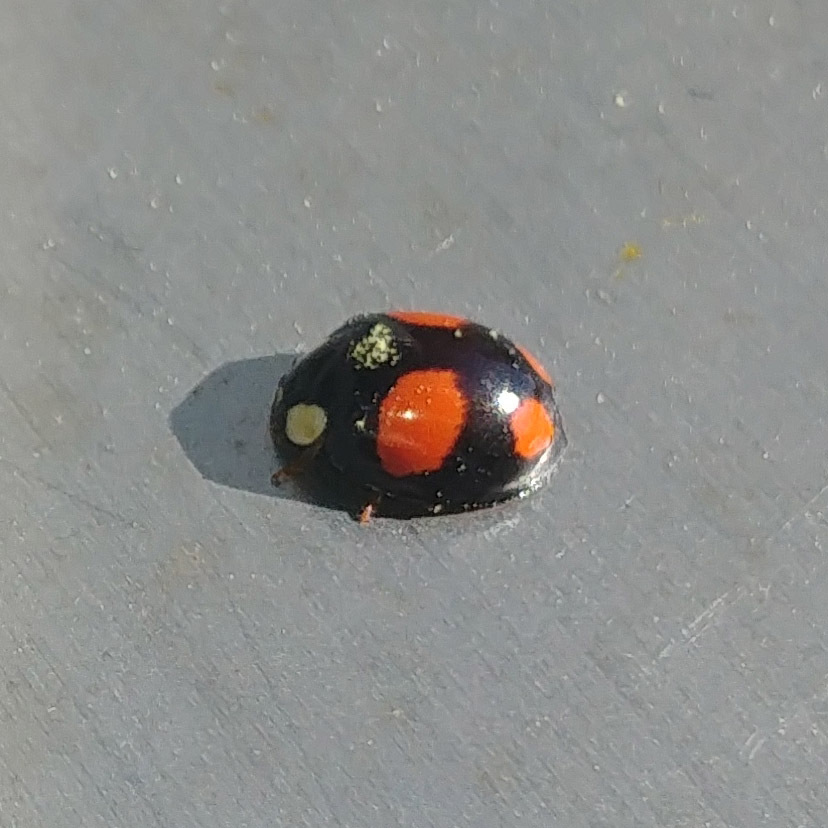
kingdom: Animalia
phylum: Arthropoda
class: Insecta
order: Coleoptera
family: Coccinellidae
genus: Harmonia
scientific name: Harmonia axyridis
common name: Harlequin ladybird
